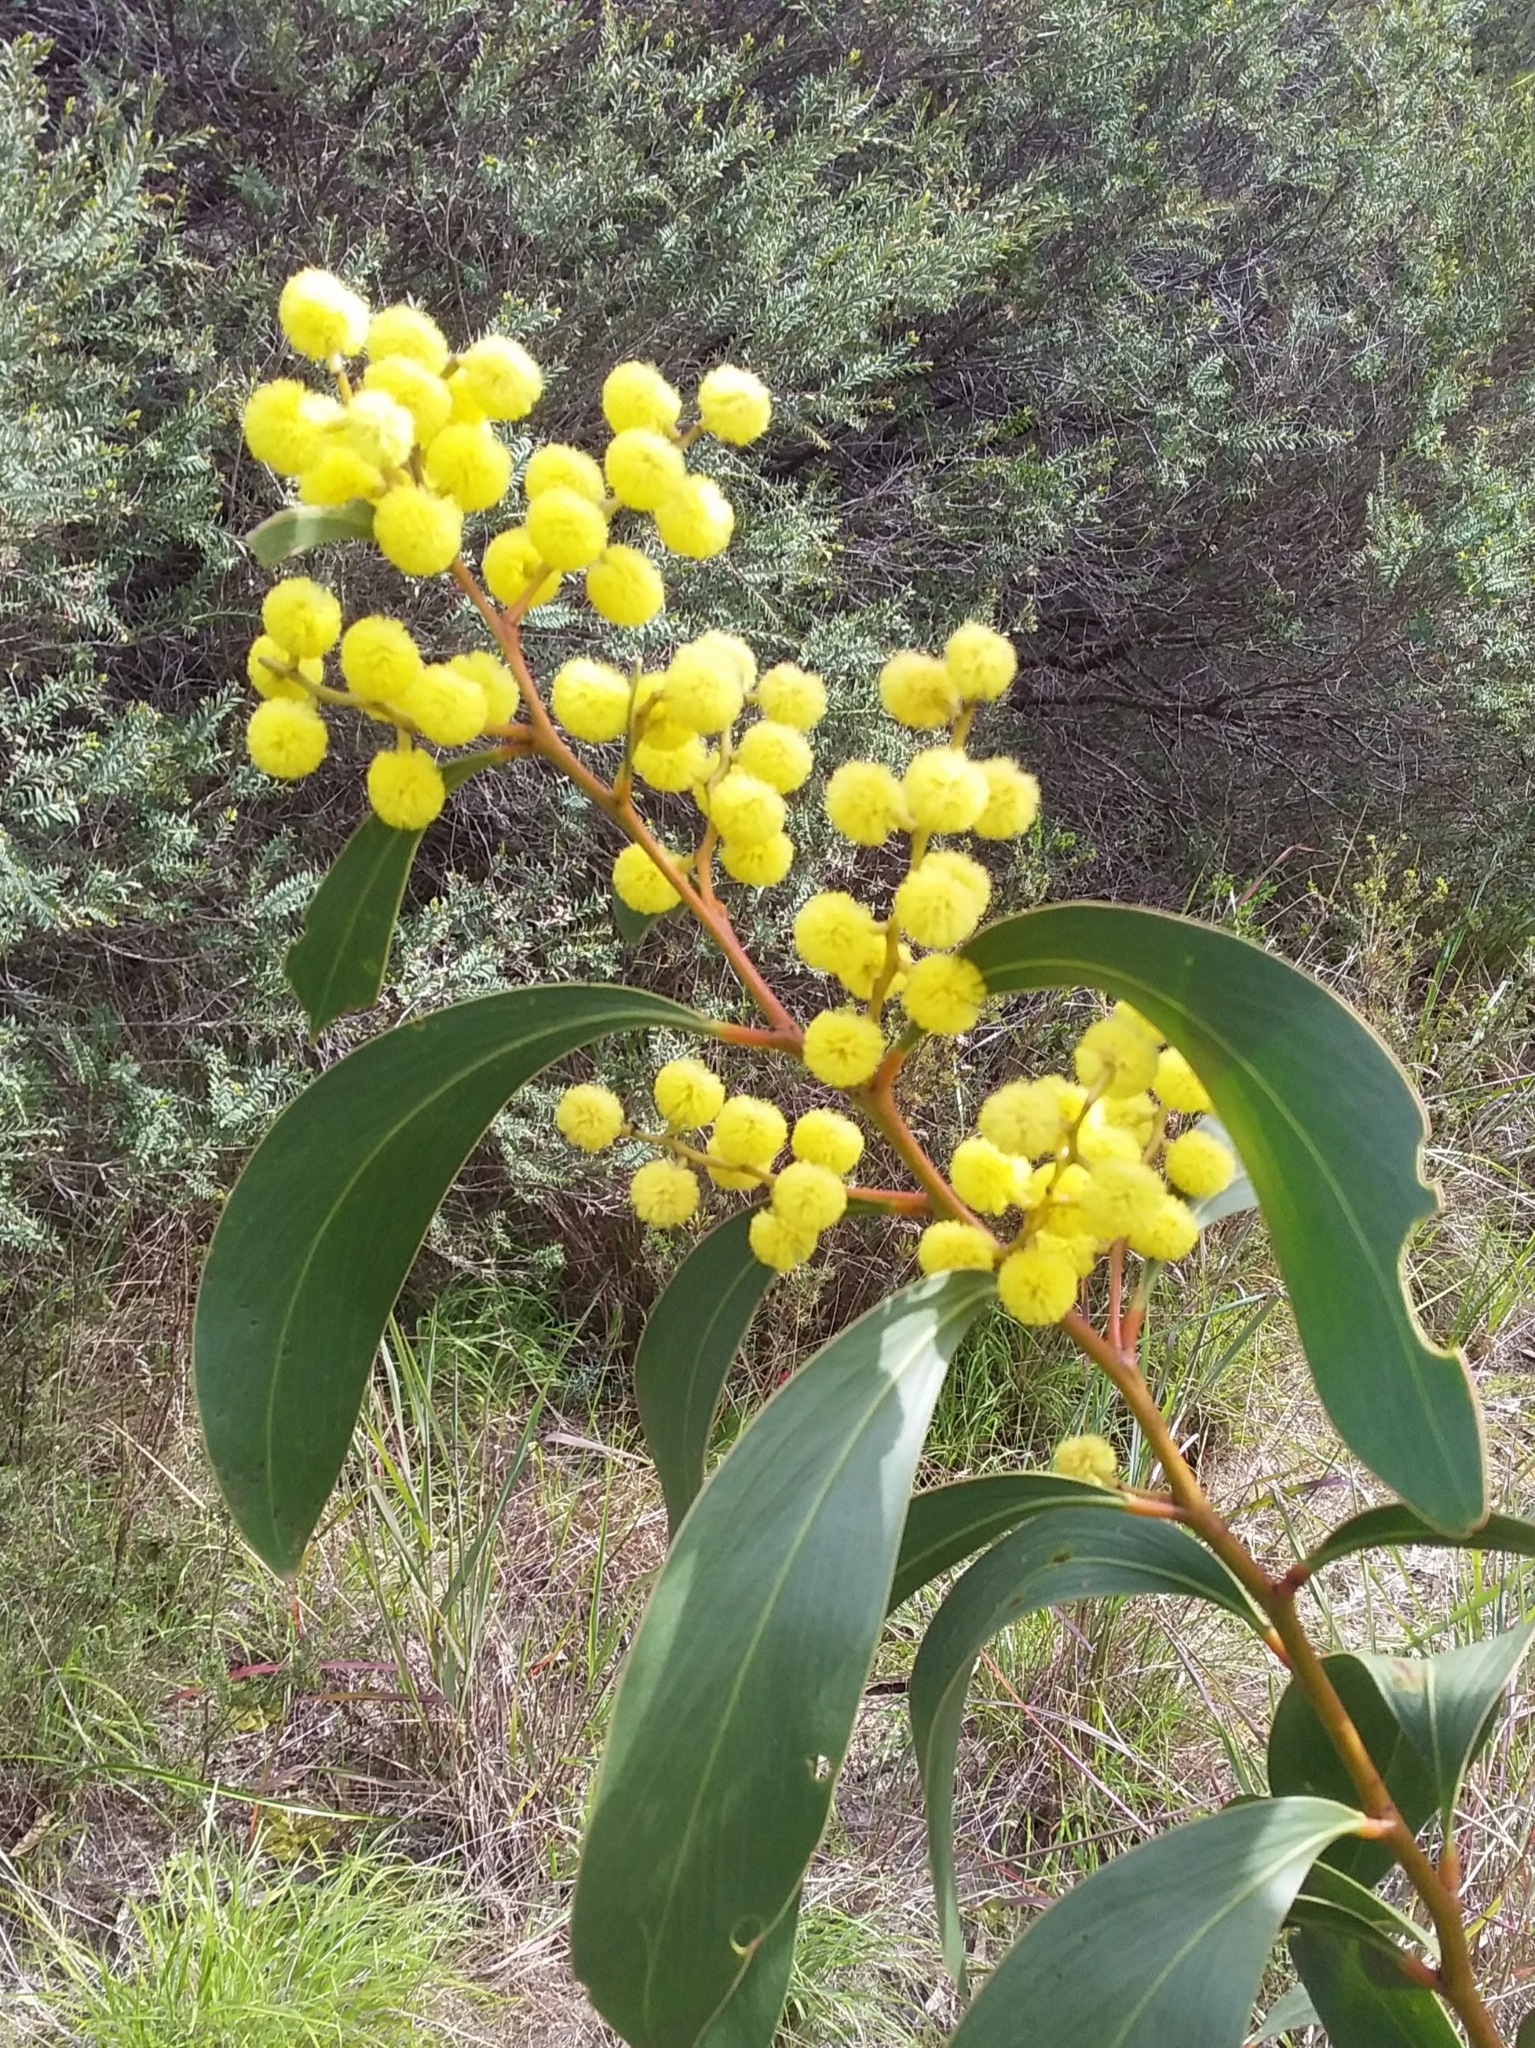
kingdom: Plantae
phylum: Tracheophyta
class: Magnoliopsida
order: Fabales
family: Fabaceae
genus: Acacia
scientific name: Acacia pycnantha
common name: Golden wattle
